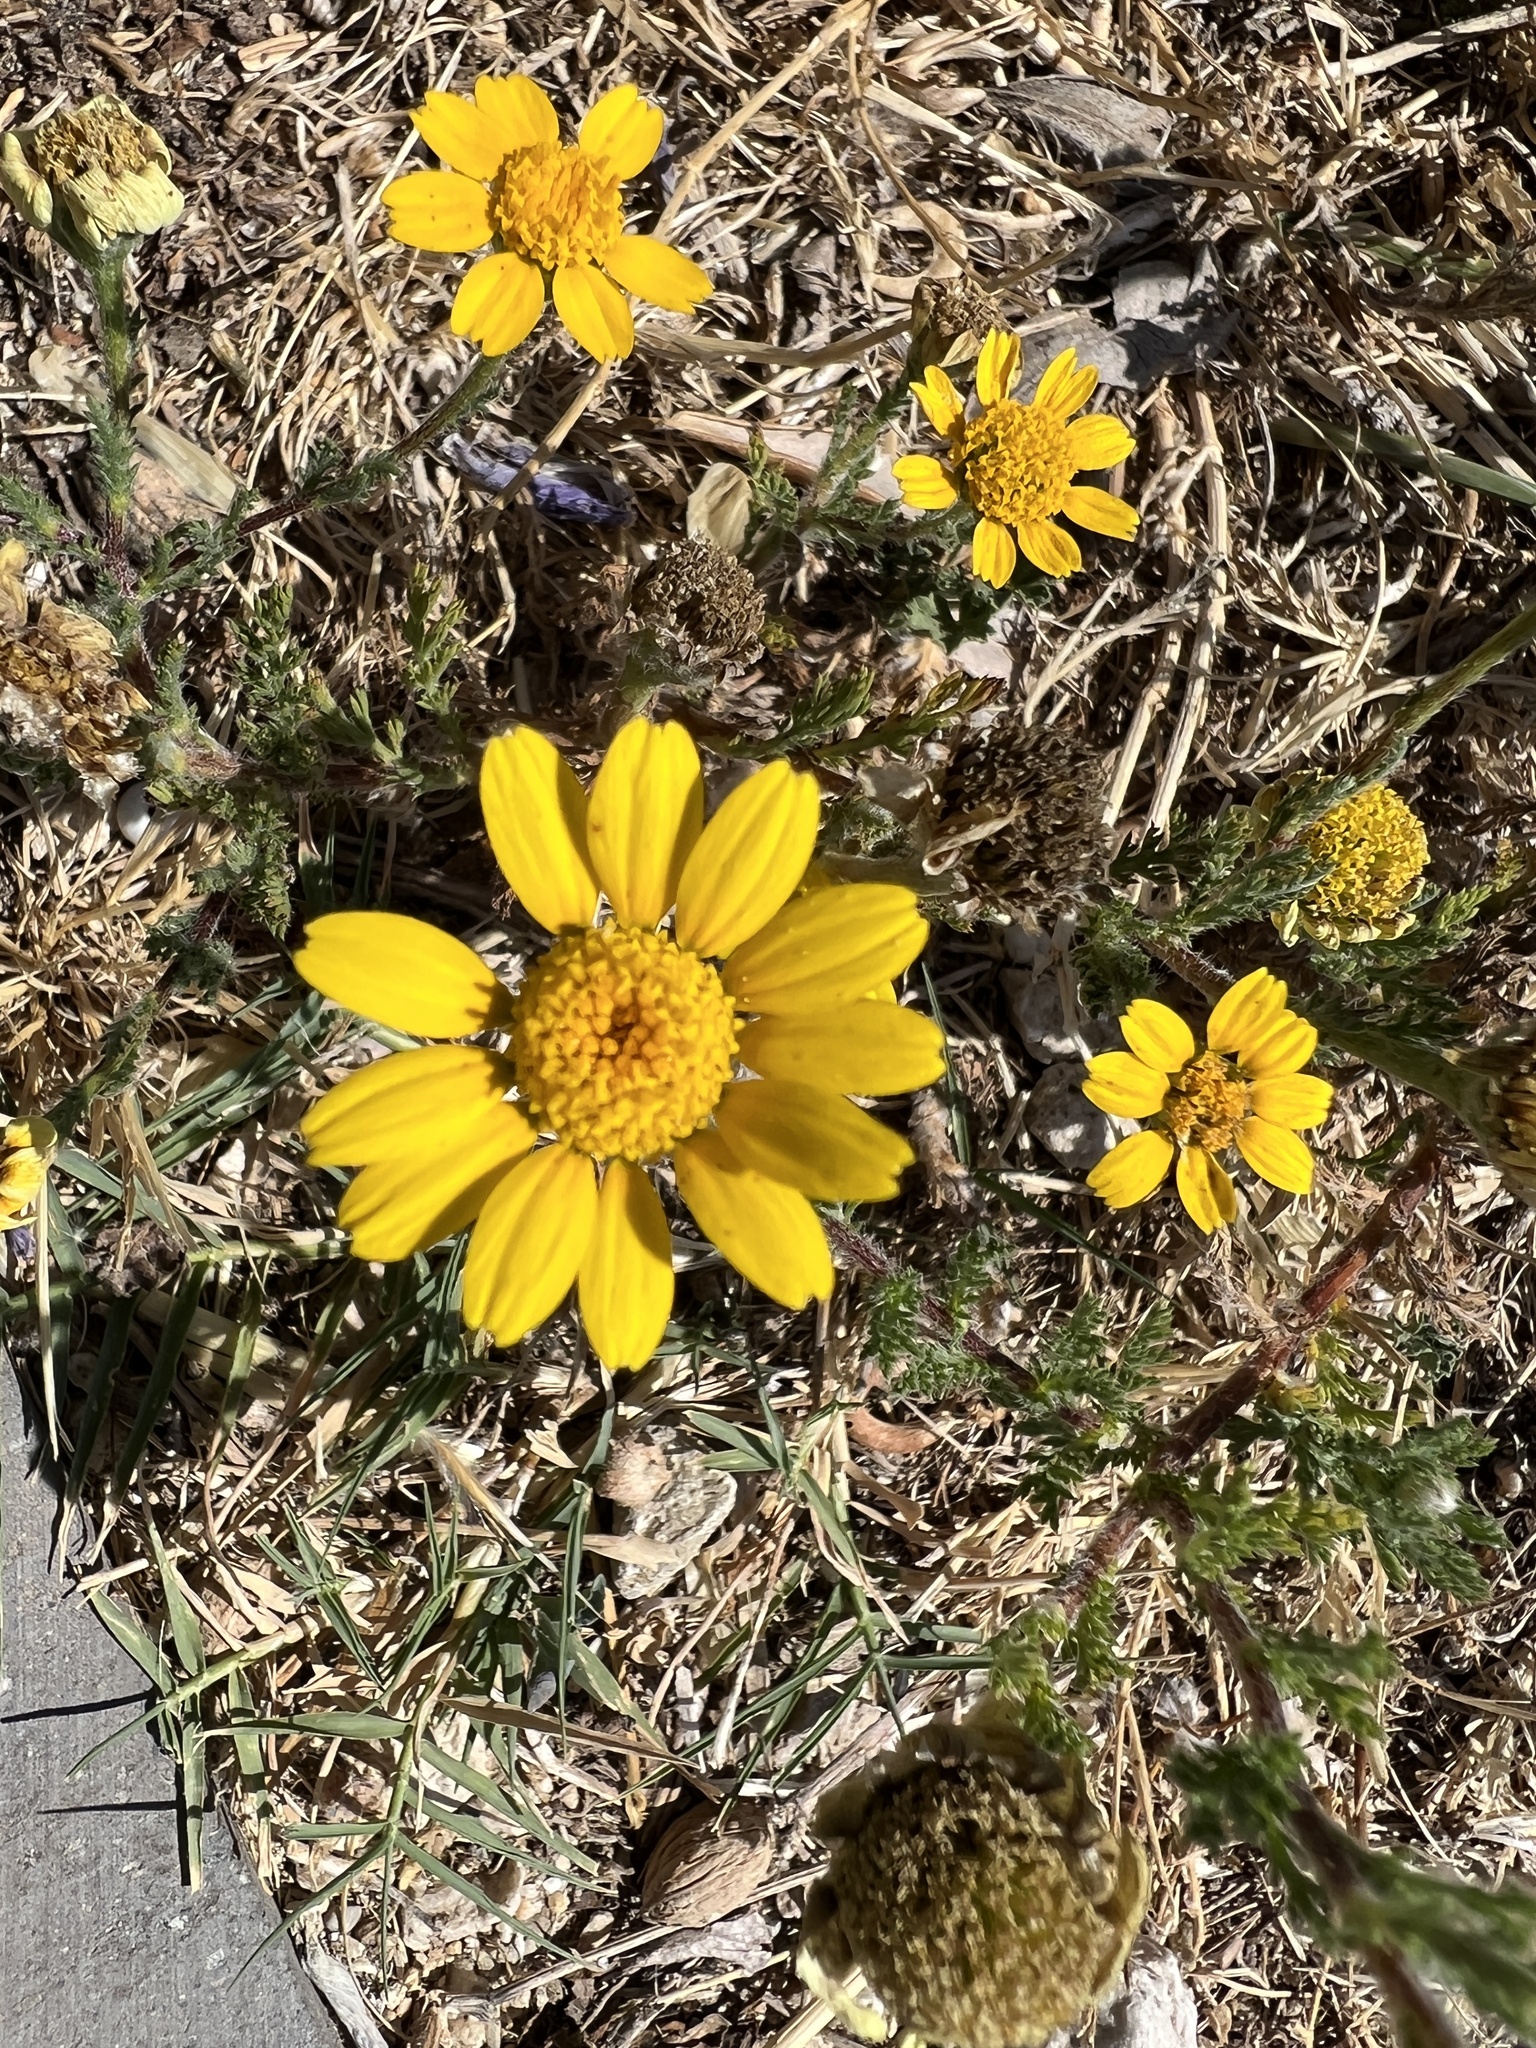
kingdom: Plantae
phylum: Tracheophyta
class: Magnoliopsida
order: Asterales
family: Asteraceae
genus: Anacyclus
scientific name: Anacyclus radiatus
